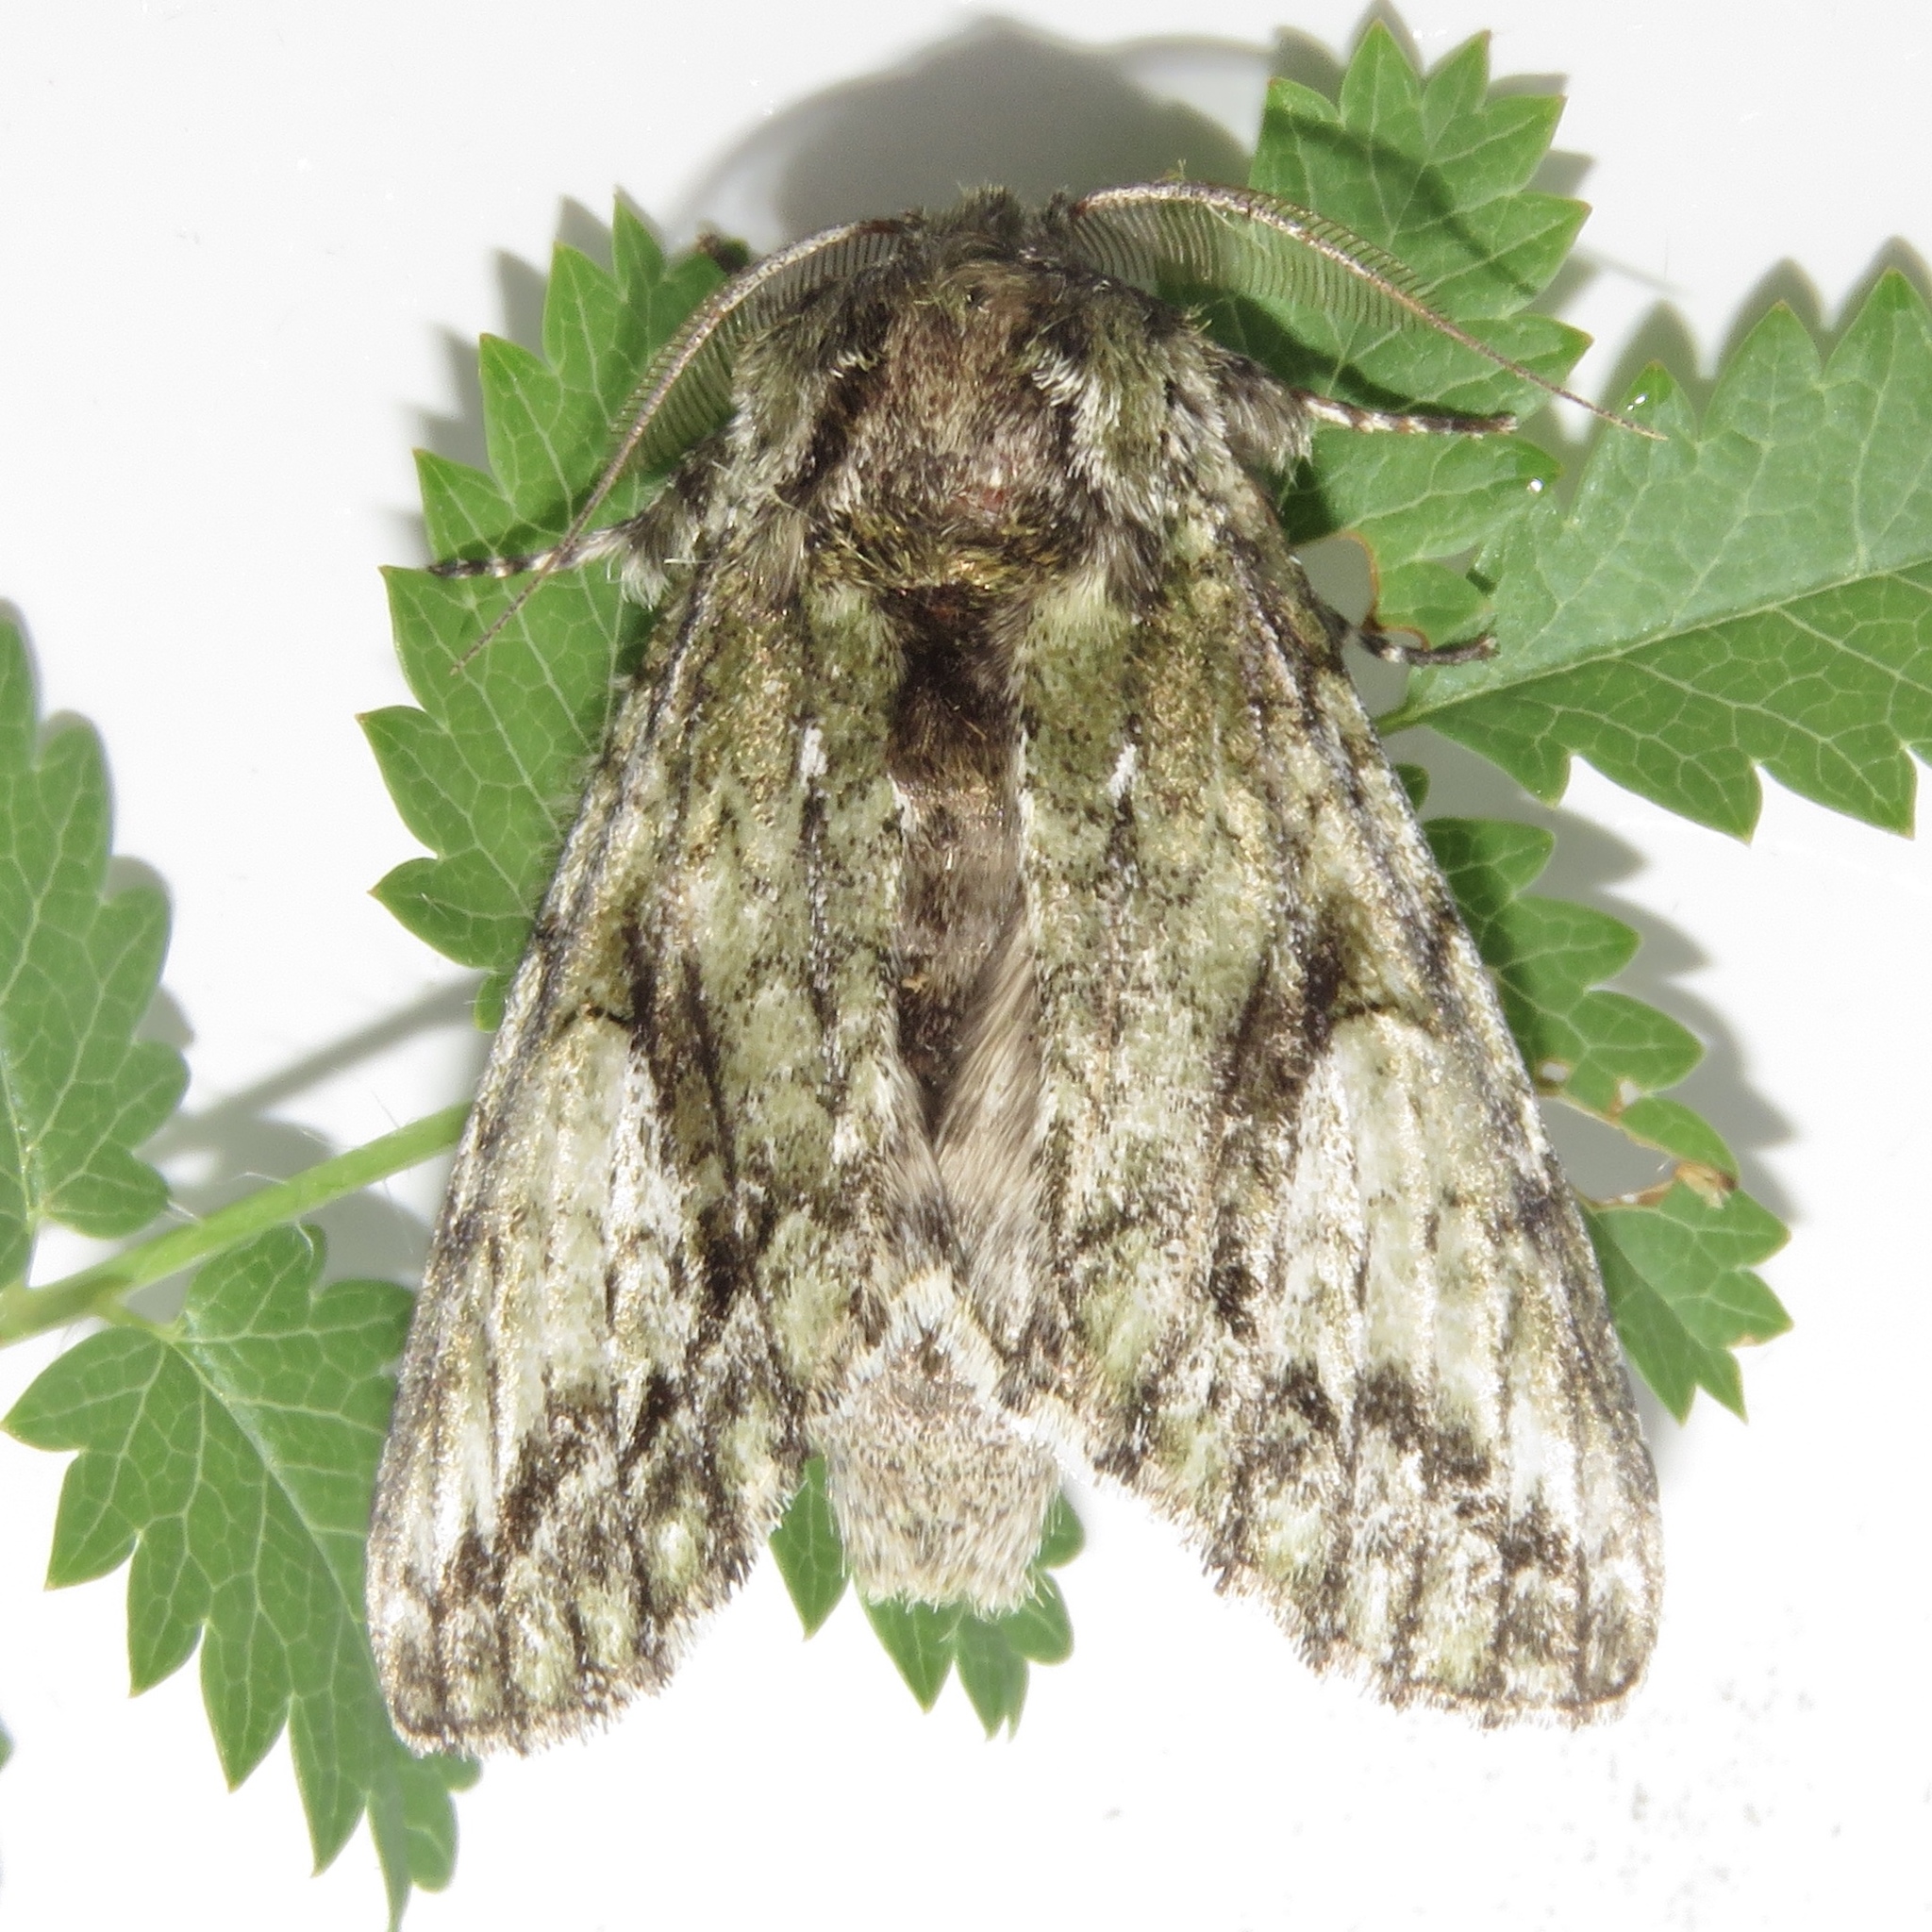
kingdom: Animalia
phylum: Arthropoda
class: Insecta
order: Lepidoptera
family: Notodontidae
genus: Heterocampa
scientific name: Heterocampa
